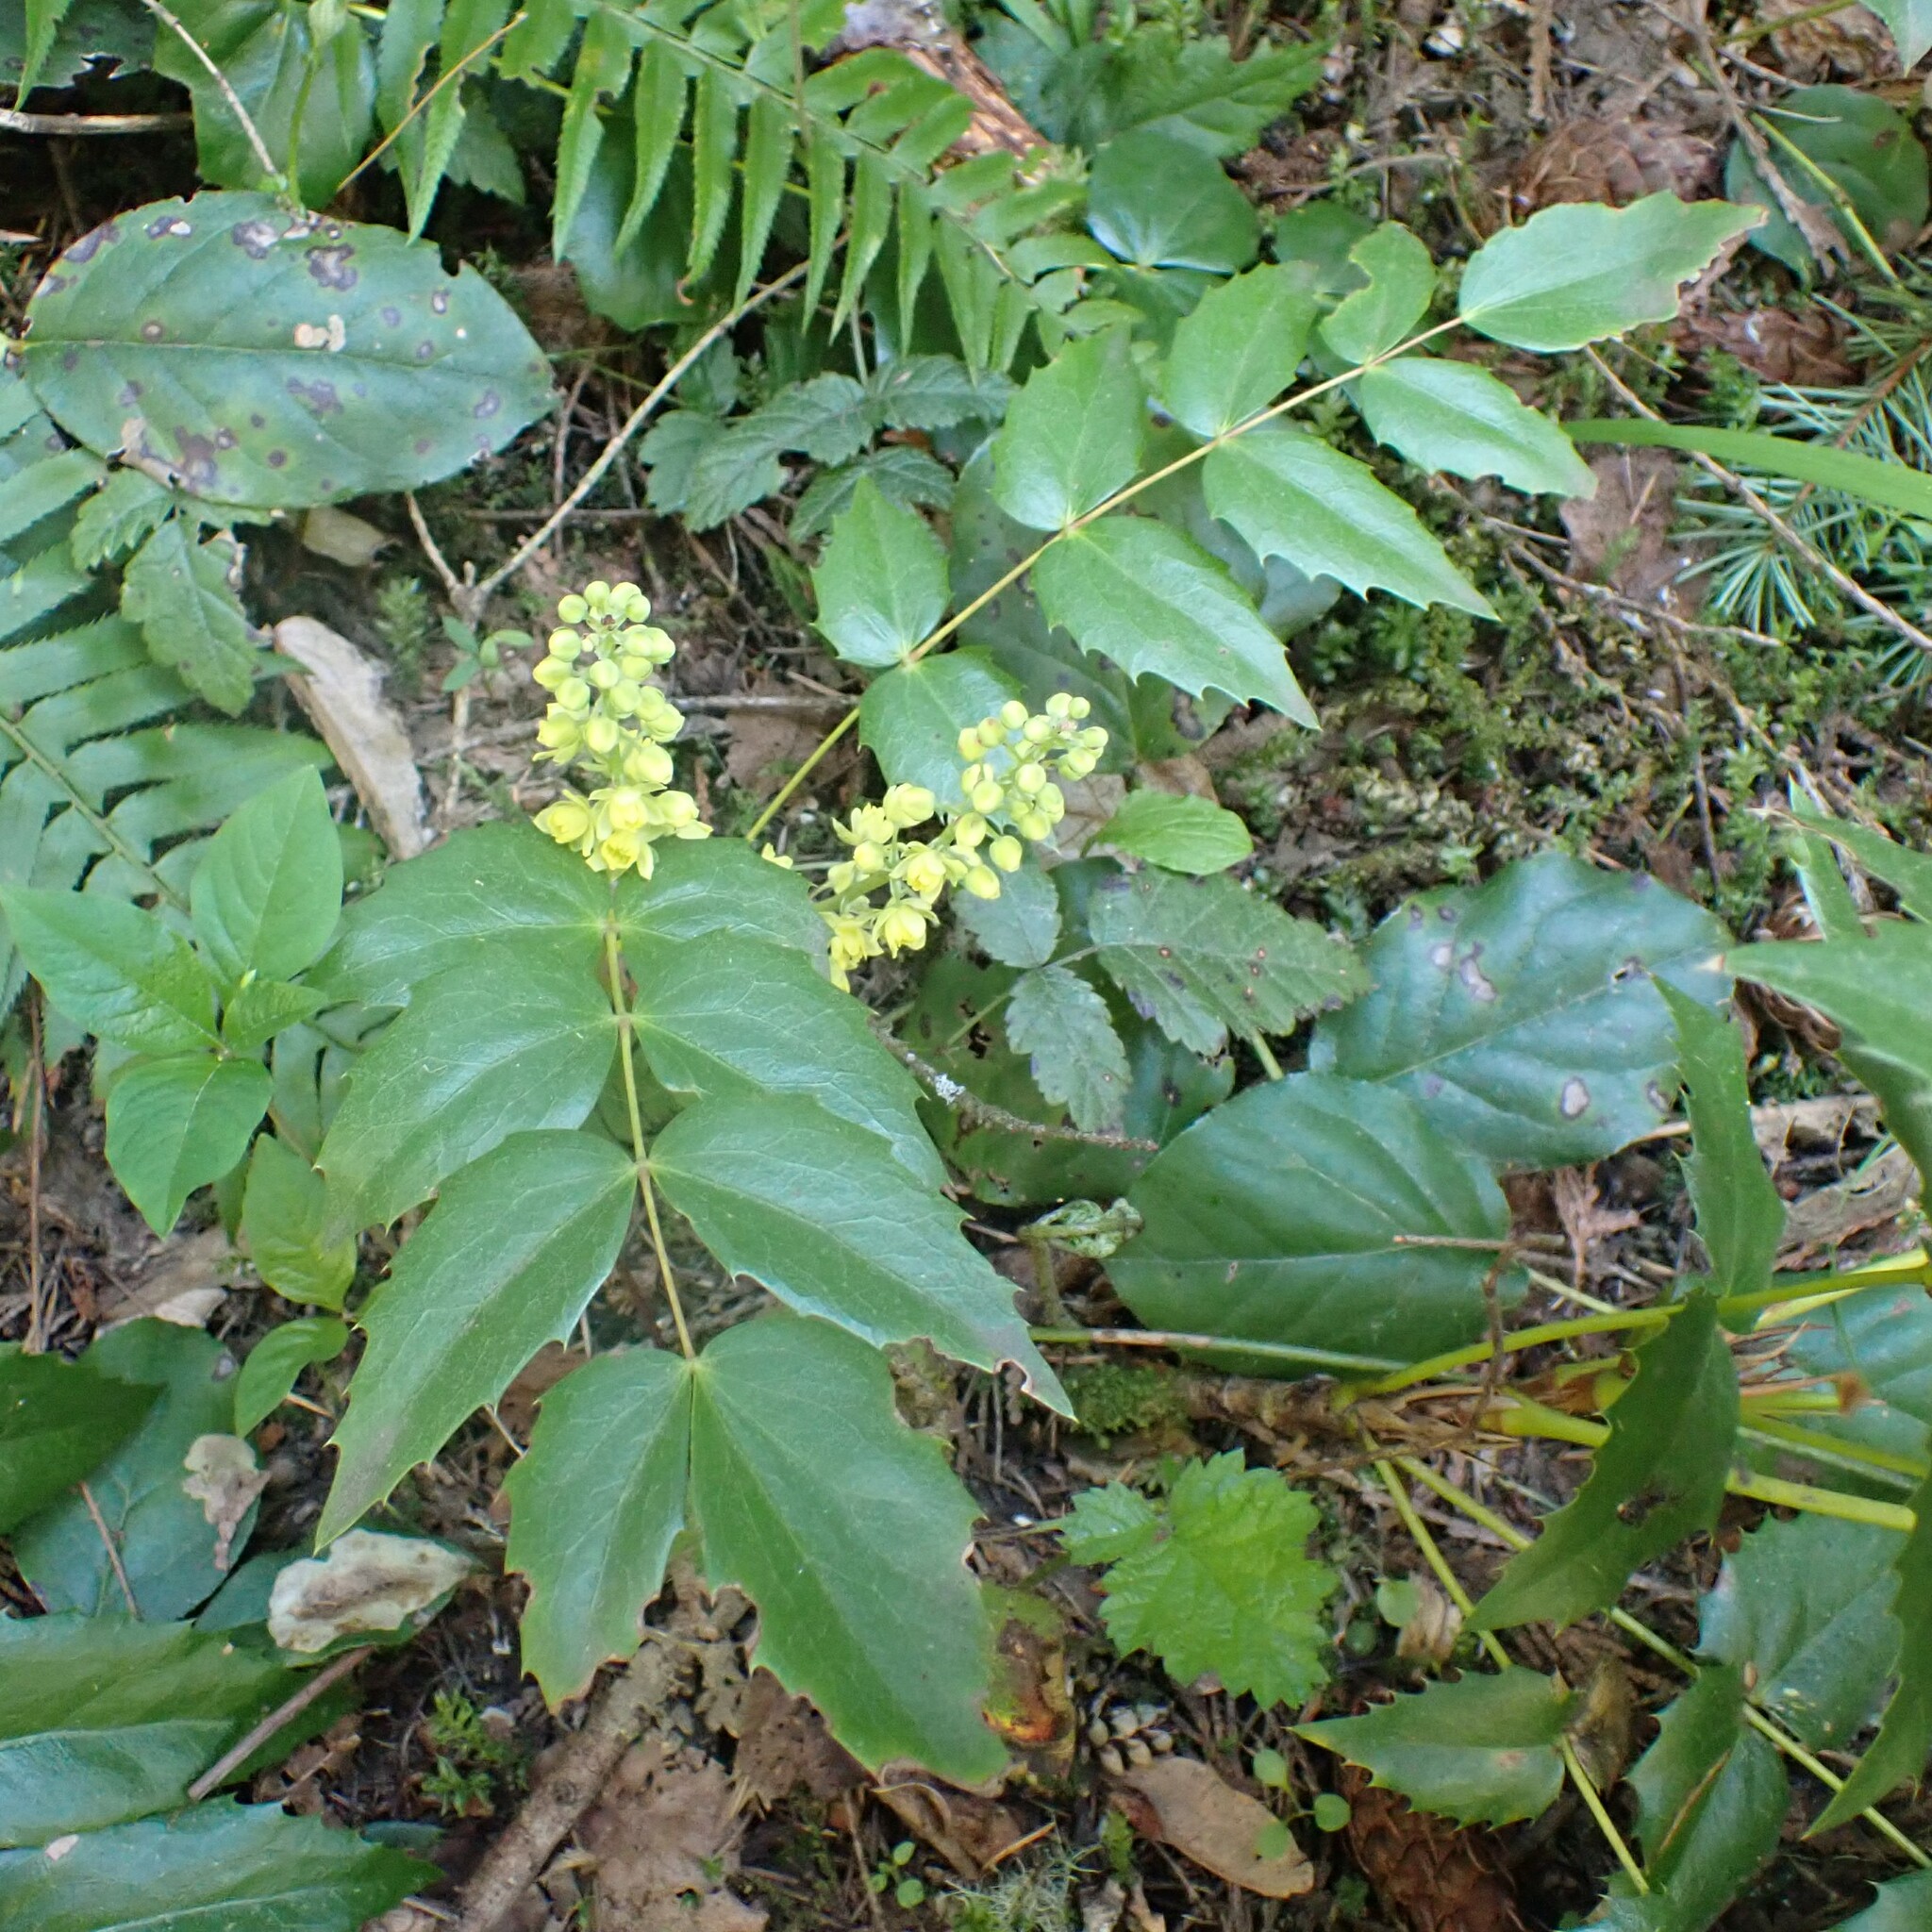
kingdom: Plantae
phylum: Tracheophyta
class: Magnoliopsida
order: Ranunculales
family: Berberidaceae
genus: Mahonia
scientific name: Mahonia nervosa
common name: Cascade oregon-grape
